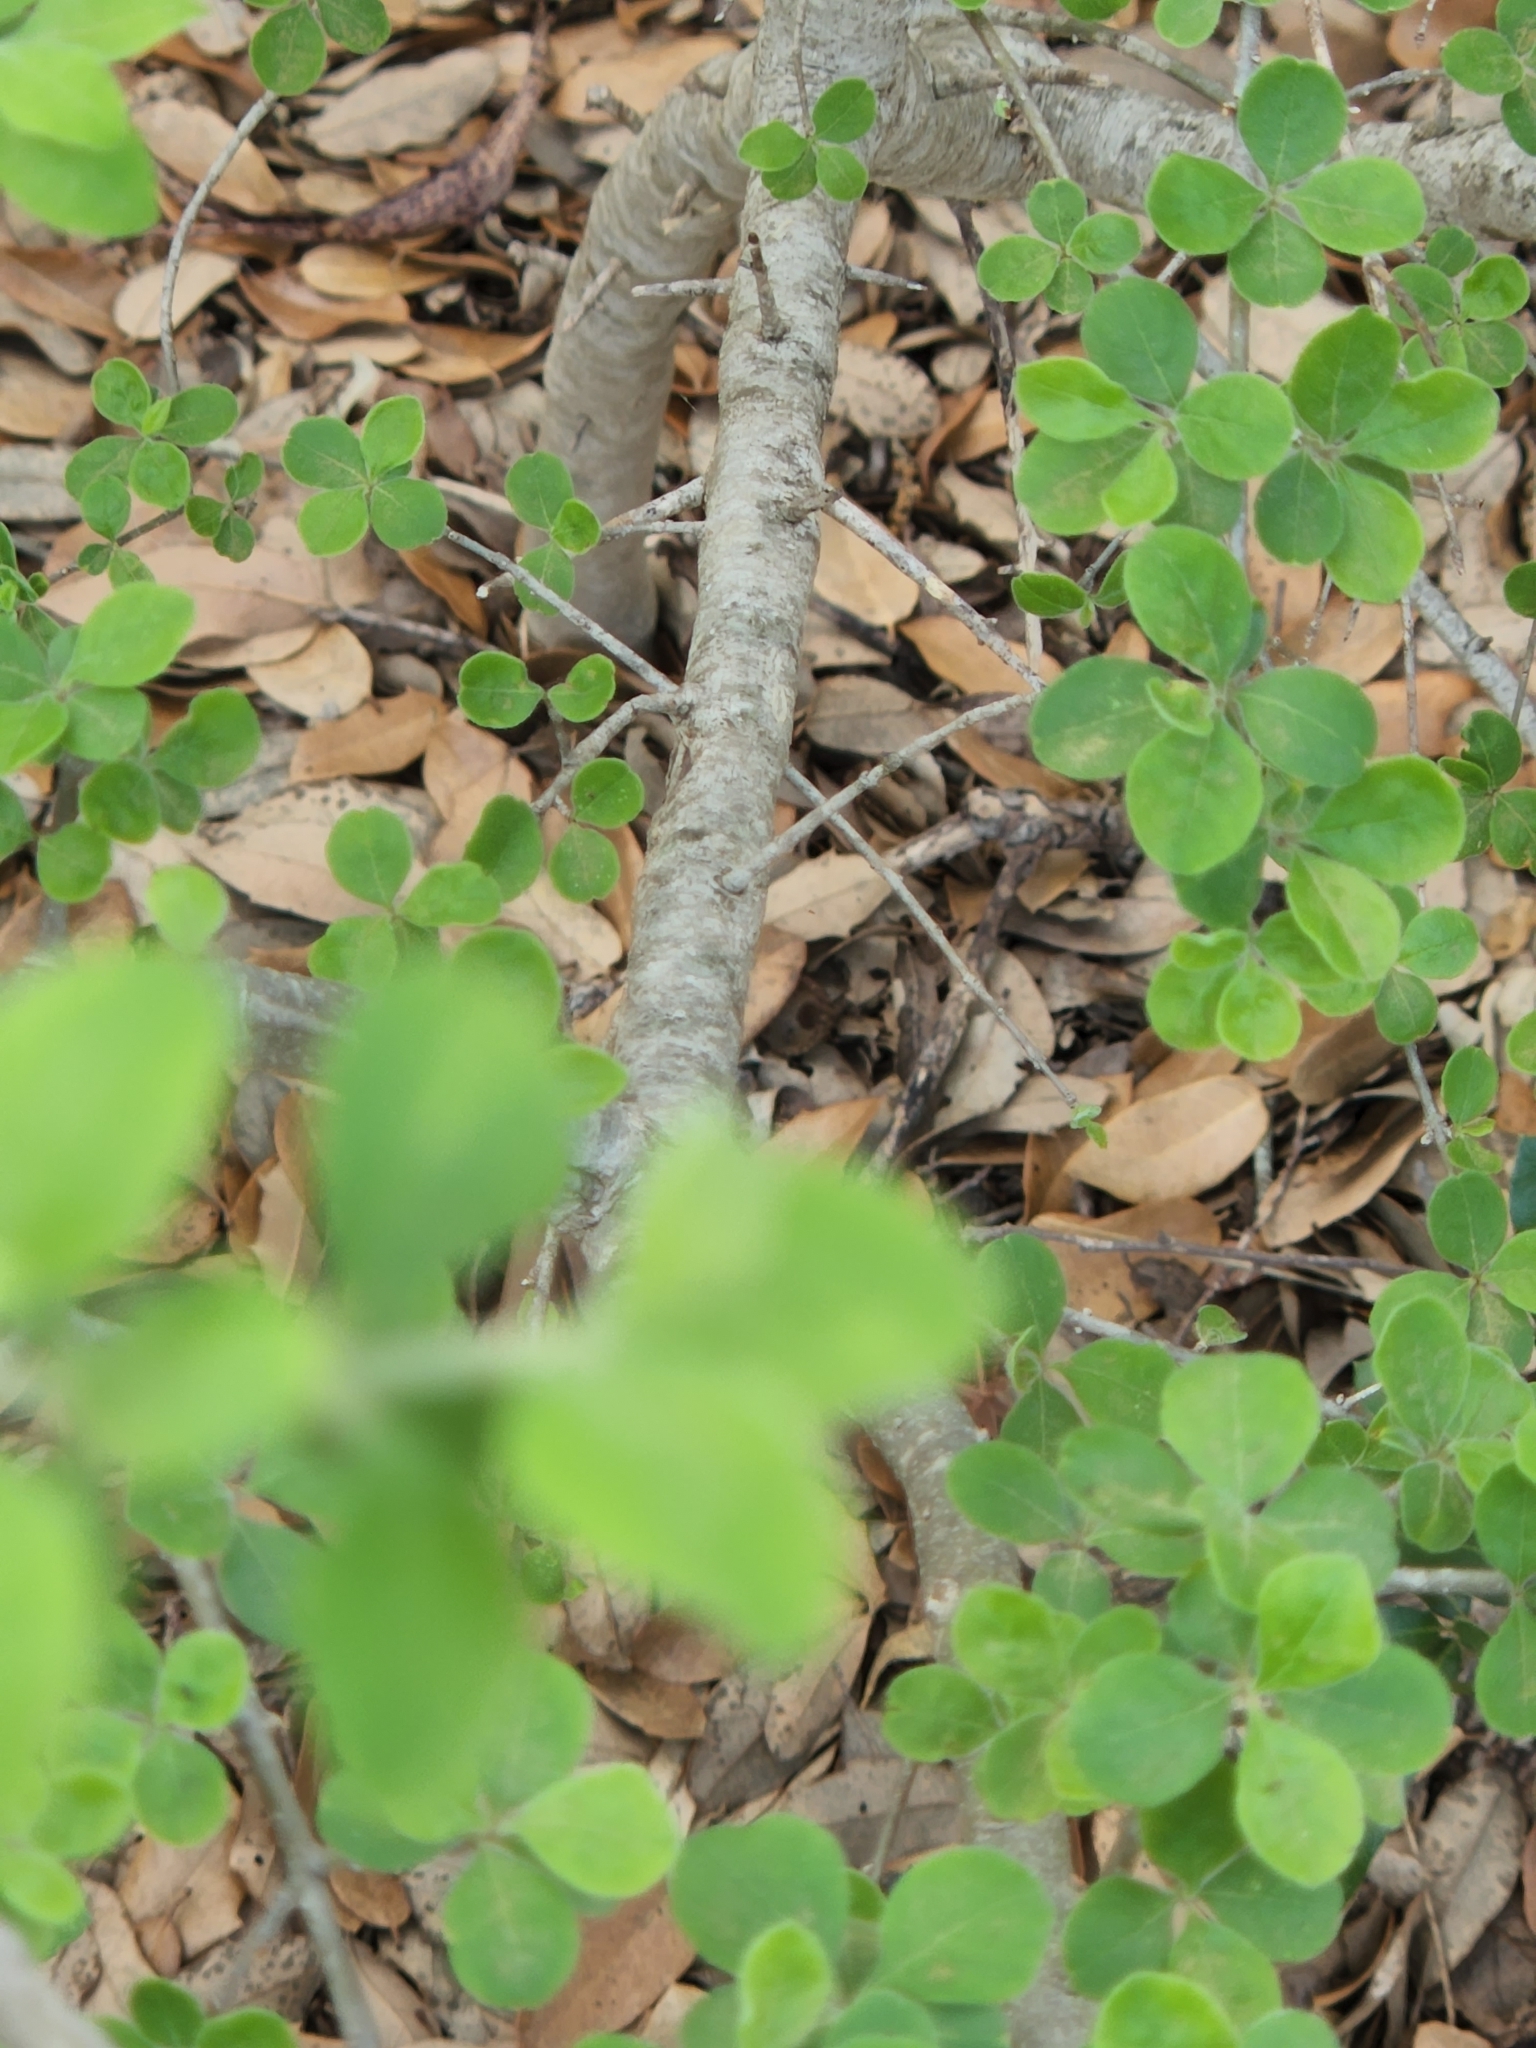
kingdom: Plantae
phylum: Tracheophyta
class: Magnoliopsida
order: Lamiales
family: Oleaceae
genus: Forestiera
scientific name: Forestiera pubescens
